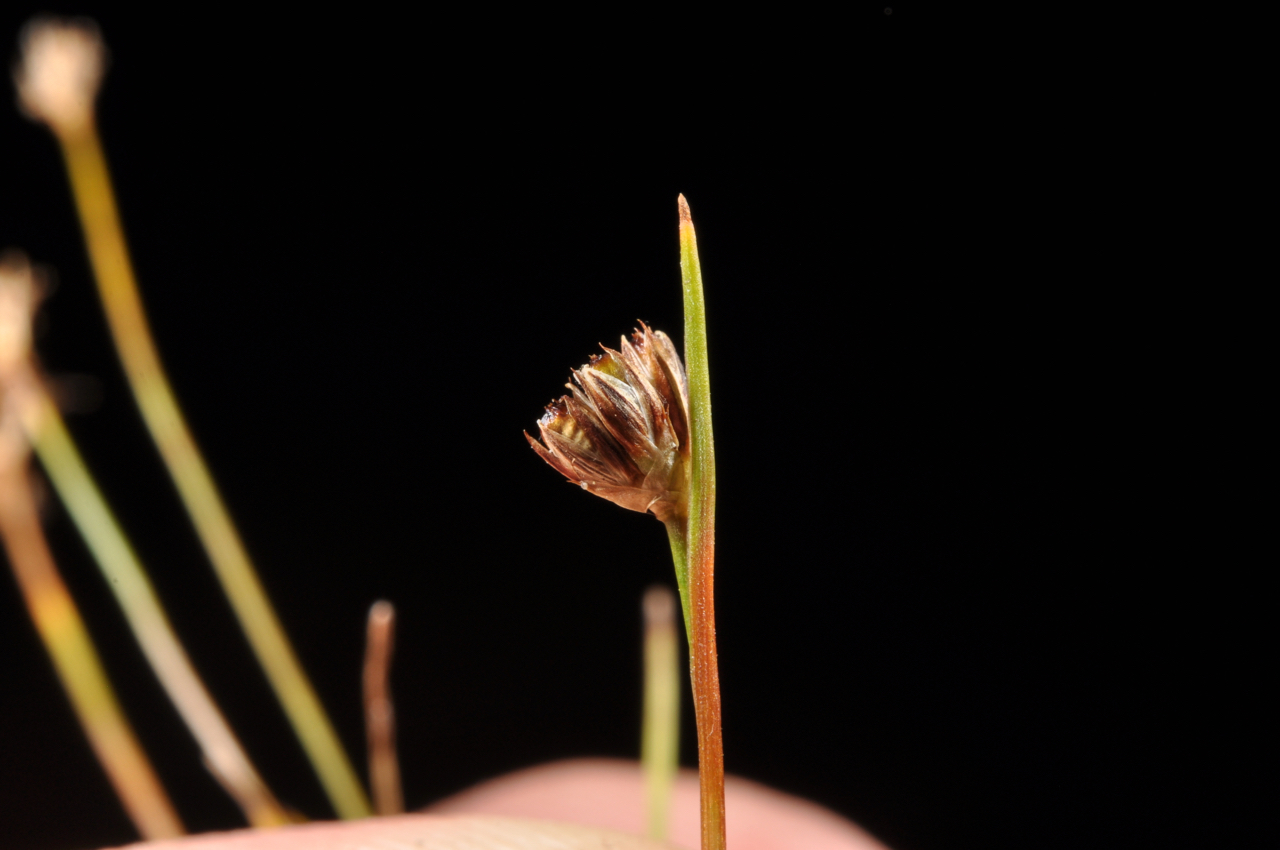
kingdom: Plantae
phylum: Tracheophyta
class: Liliopsida
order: Poales
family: Juncaceae
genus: Juncus
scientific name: Juncus antarcticus
